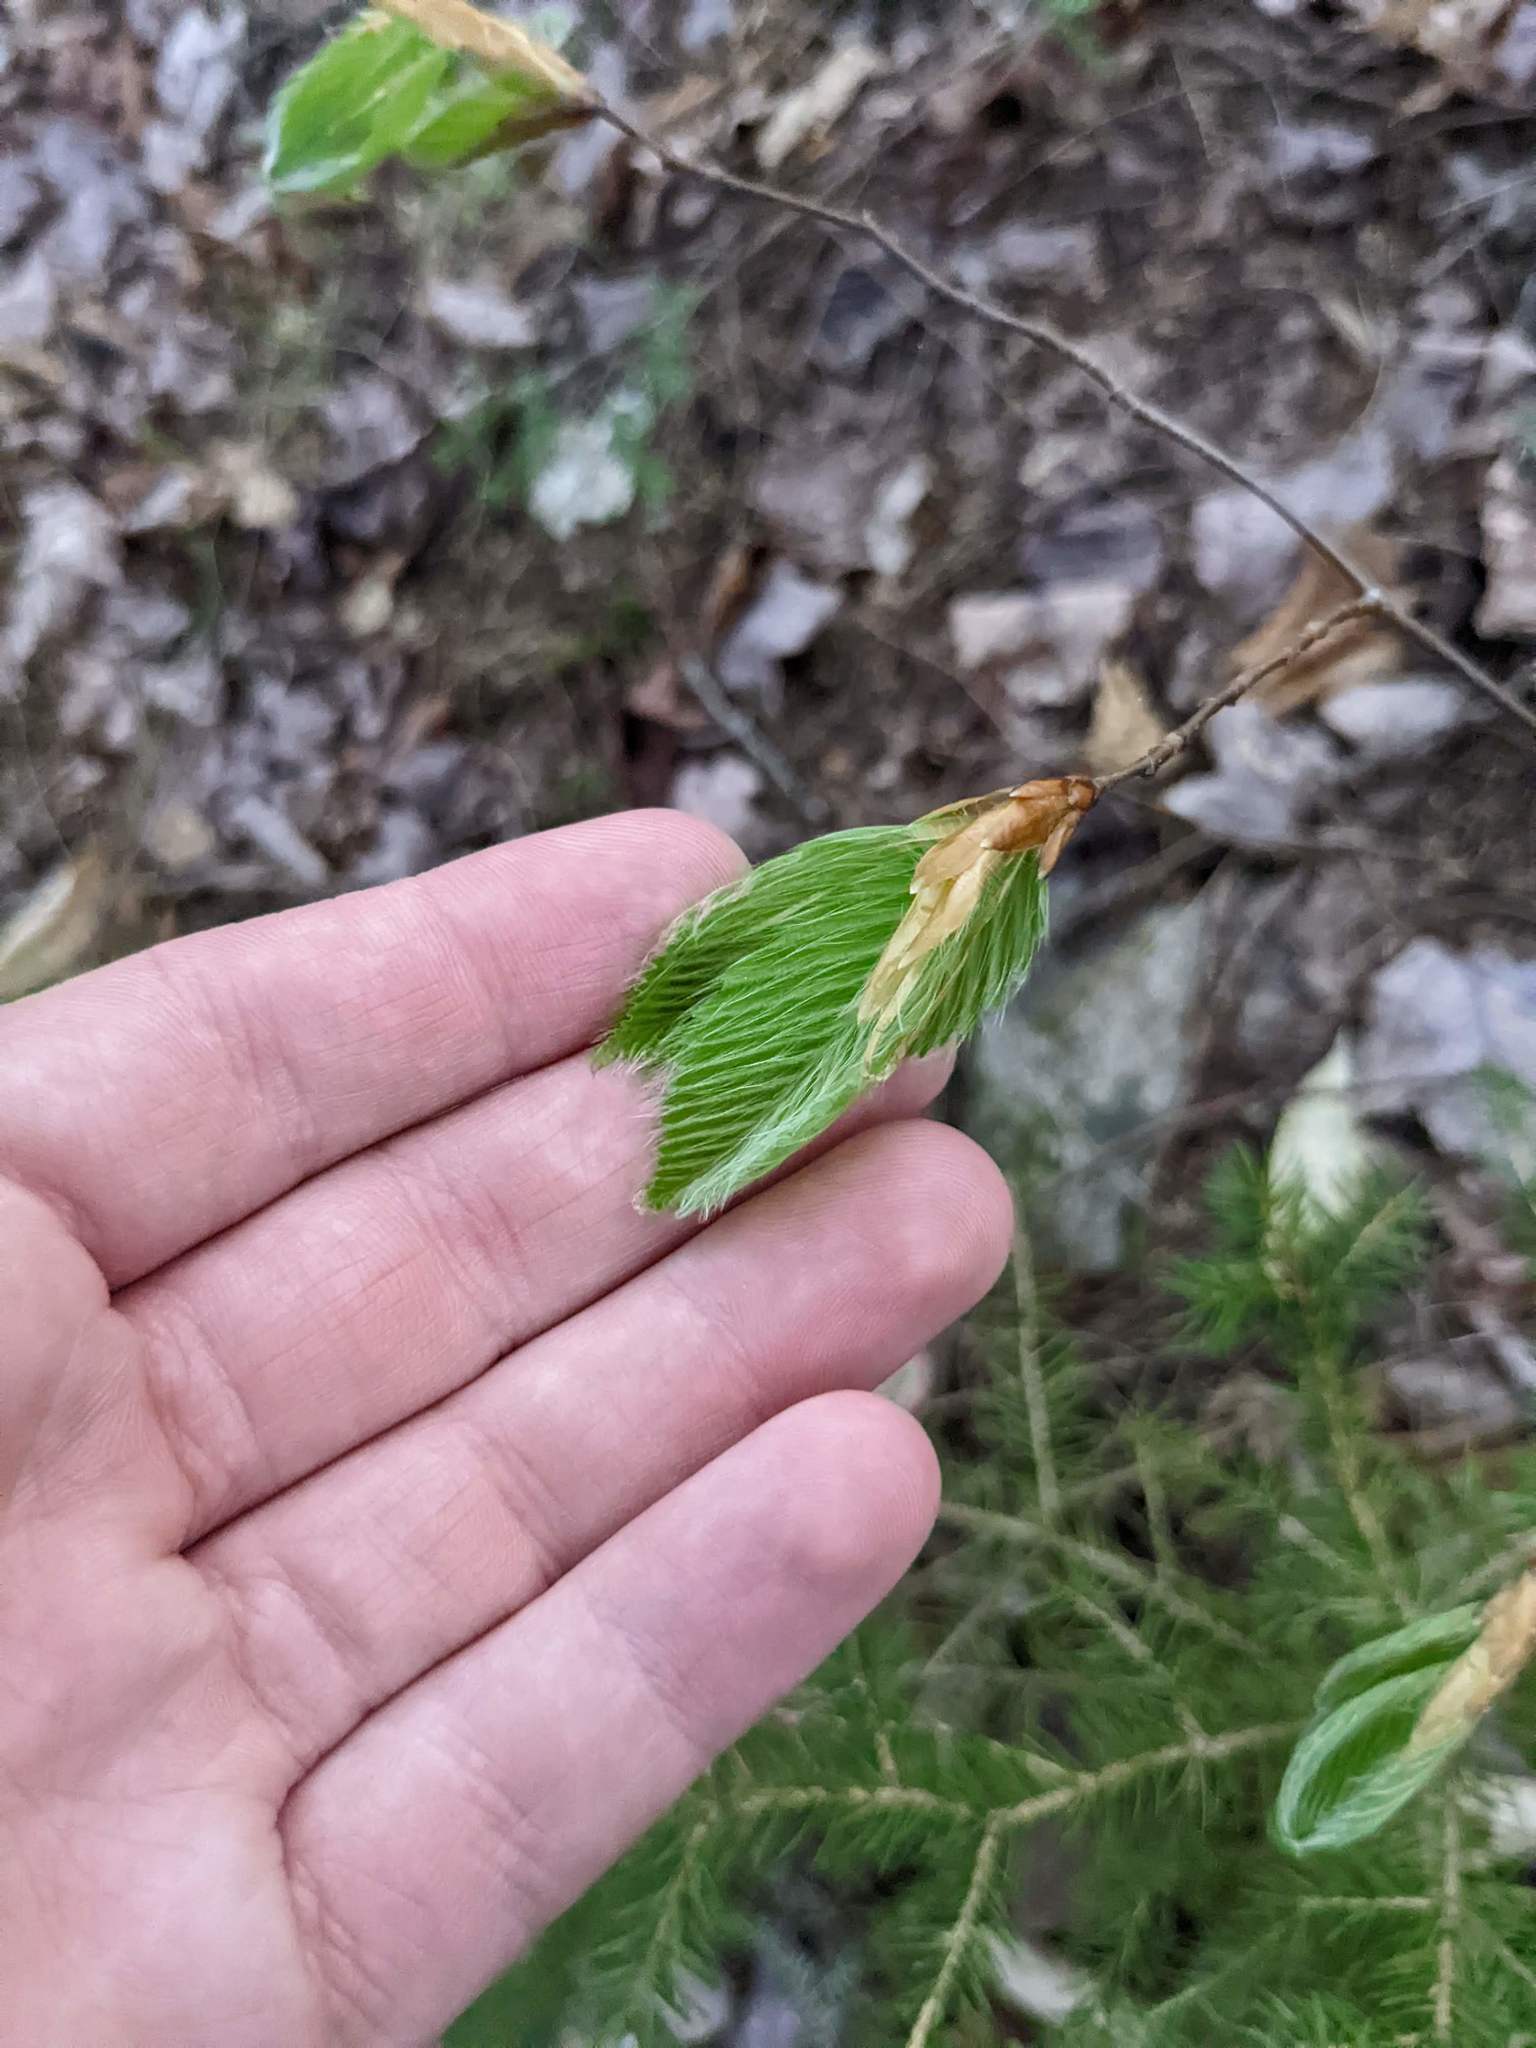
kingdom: Plantae
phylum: Tracheophyta
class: Magnoliopsida
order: Fagales
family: Fagaceae
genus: Fagus
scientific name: Fagus grandifolia
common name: American beech
